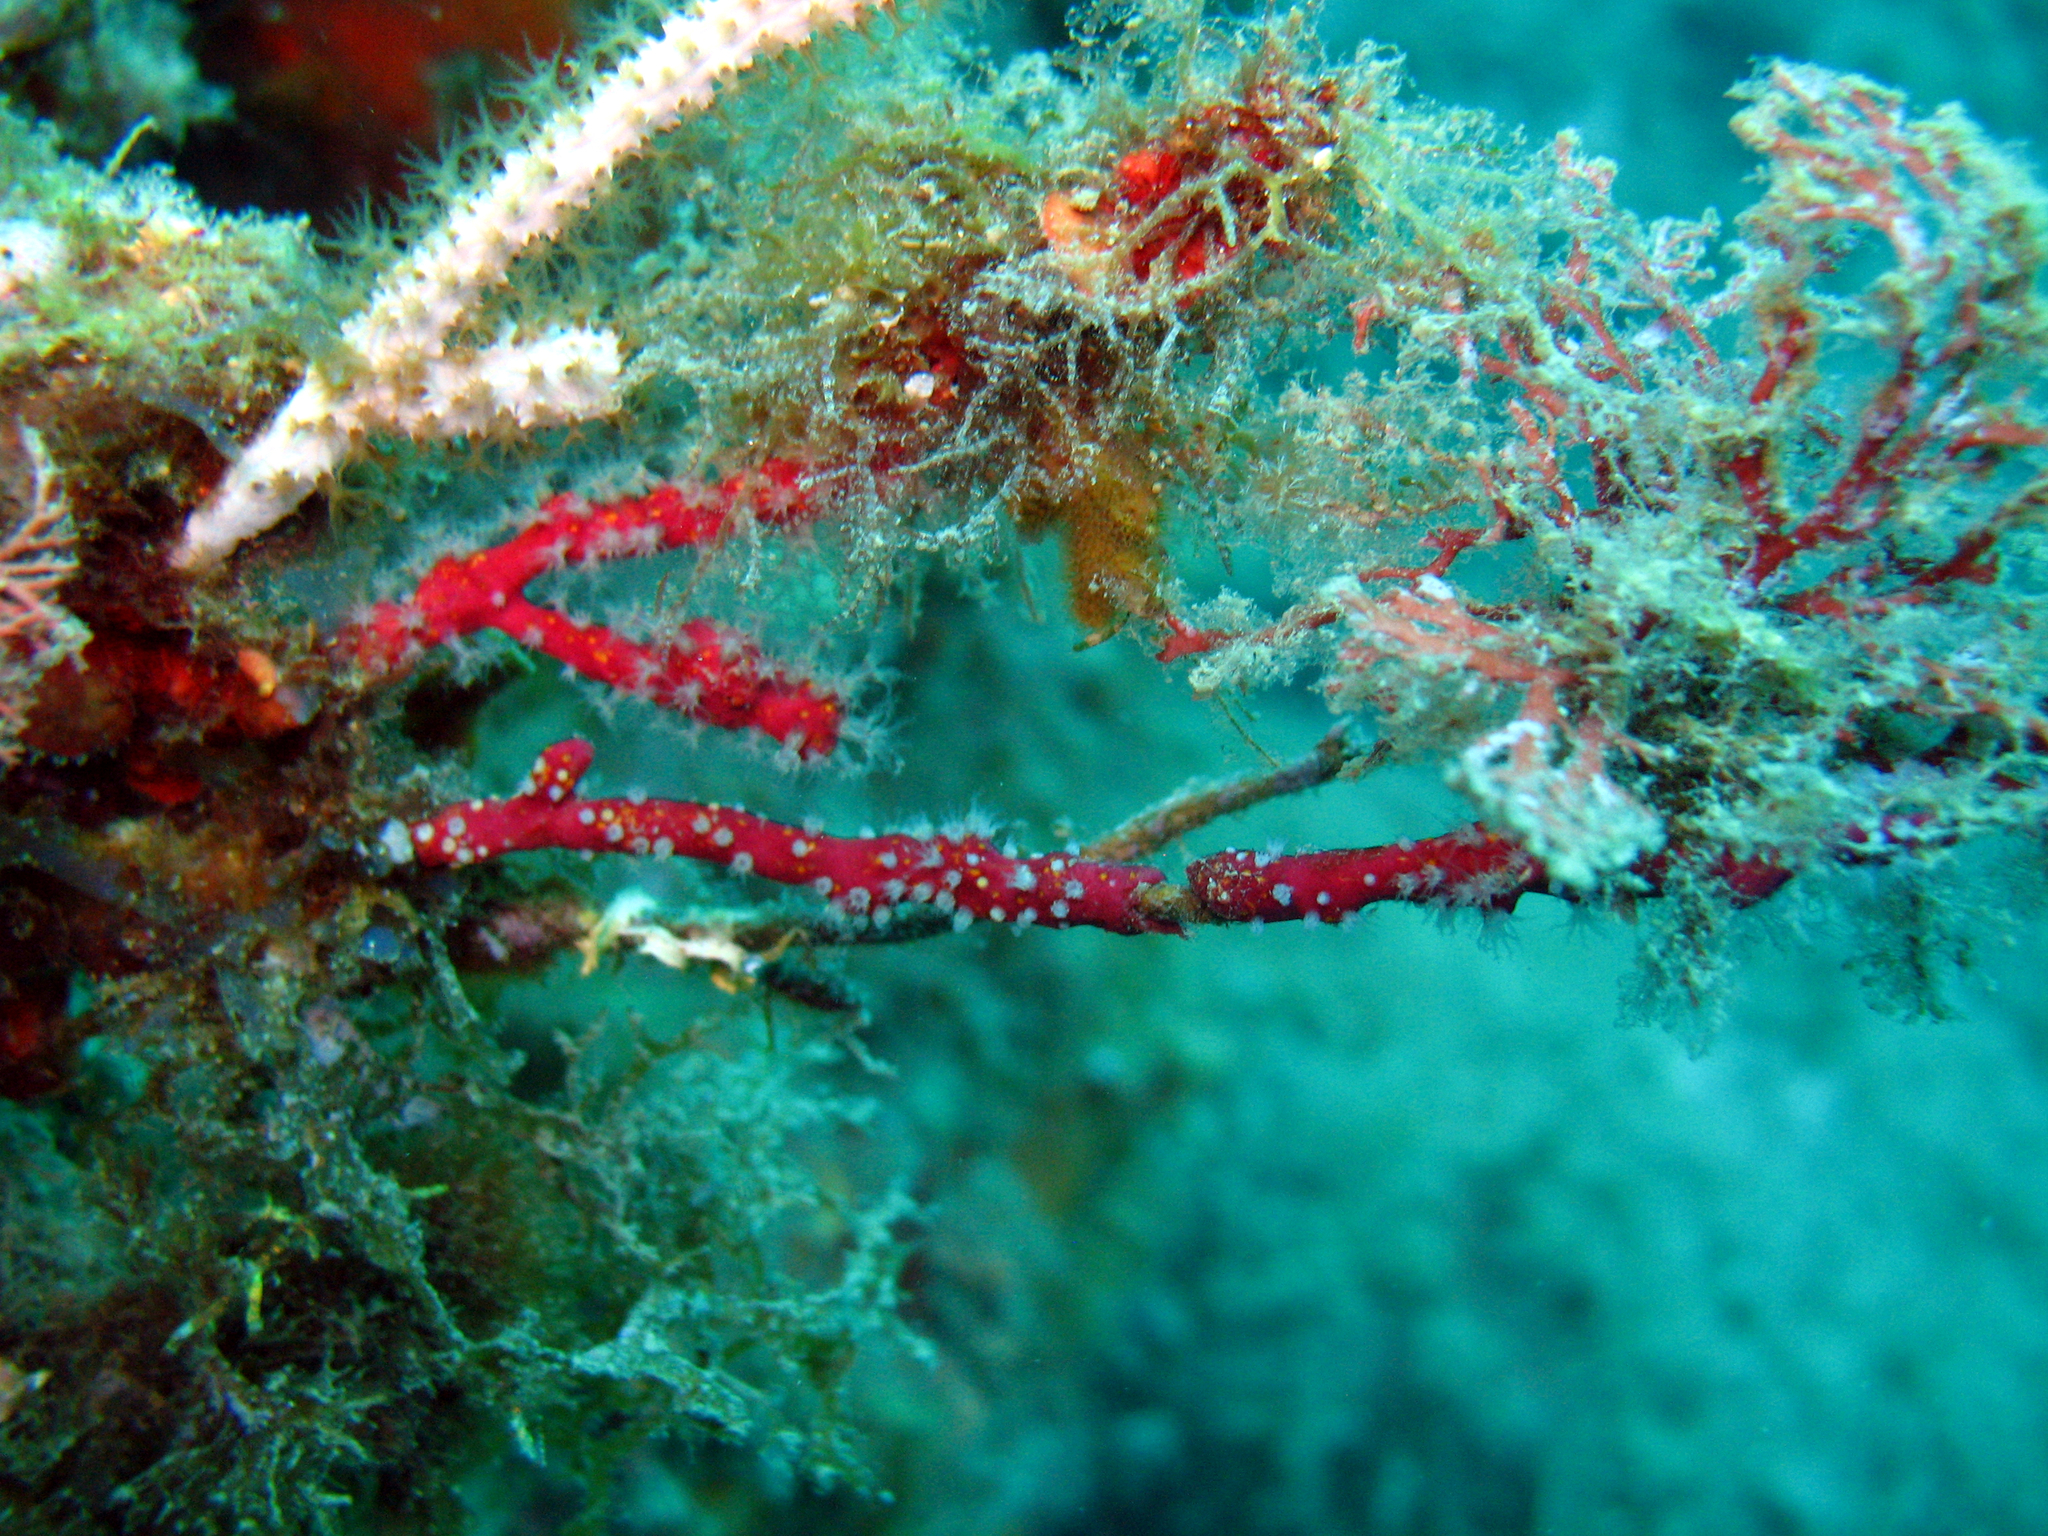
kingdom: Animalia
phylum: Cnidaria
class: Anthozoa
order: Malacalcyonacea
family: Alcyoniidae
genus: Alcyonium
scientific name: Alcyonium coralloides
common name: Soft coral
